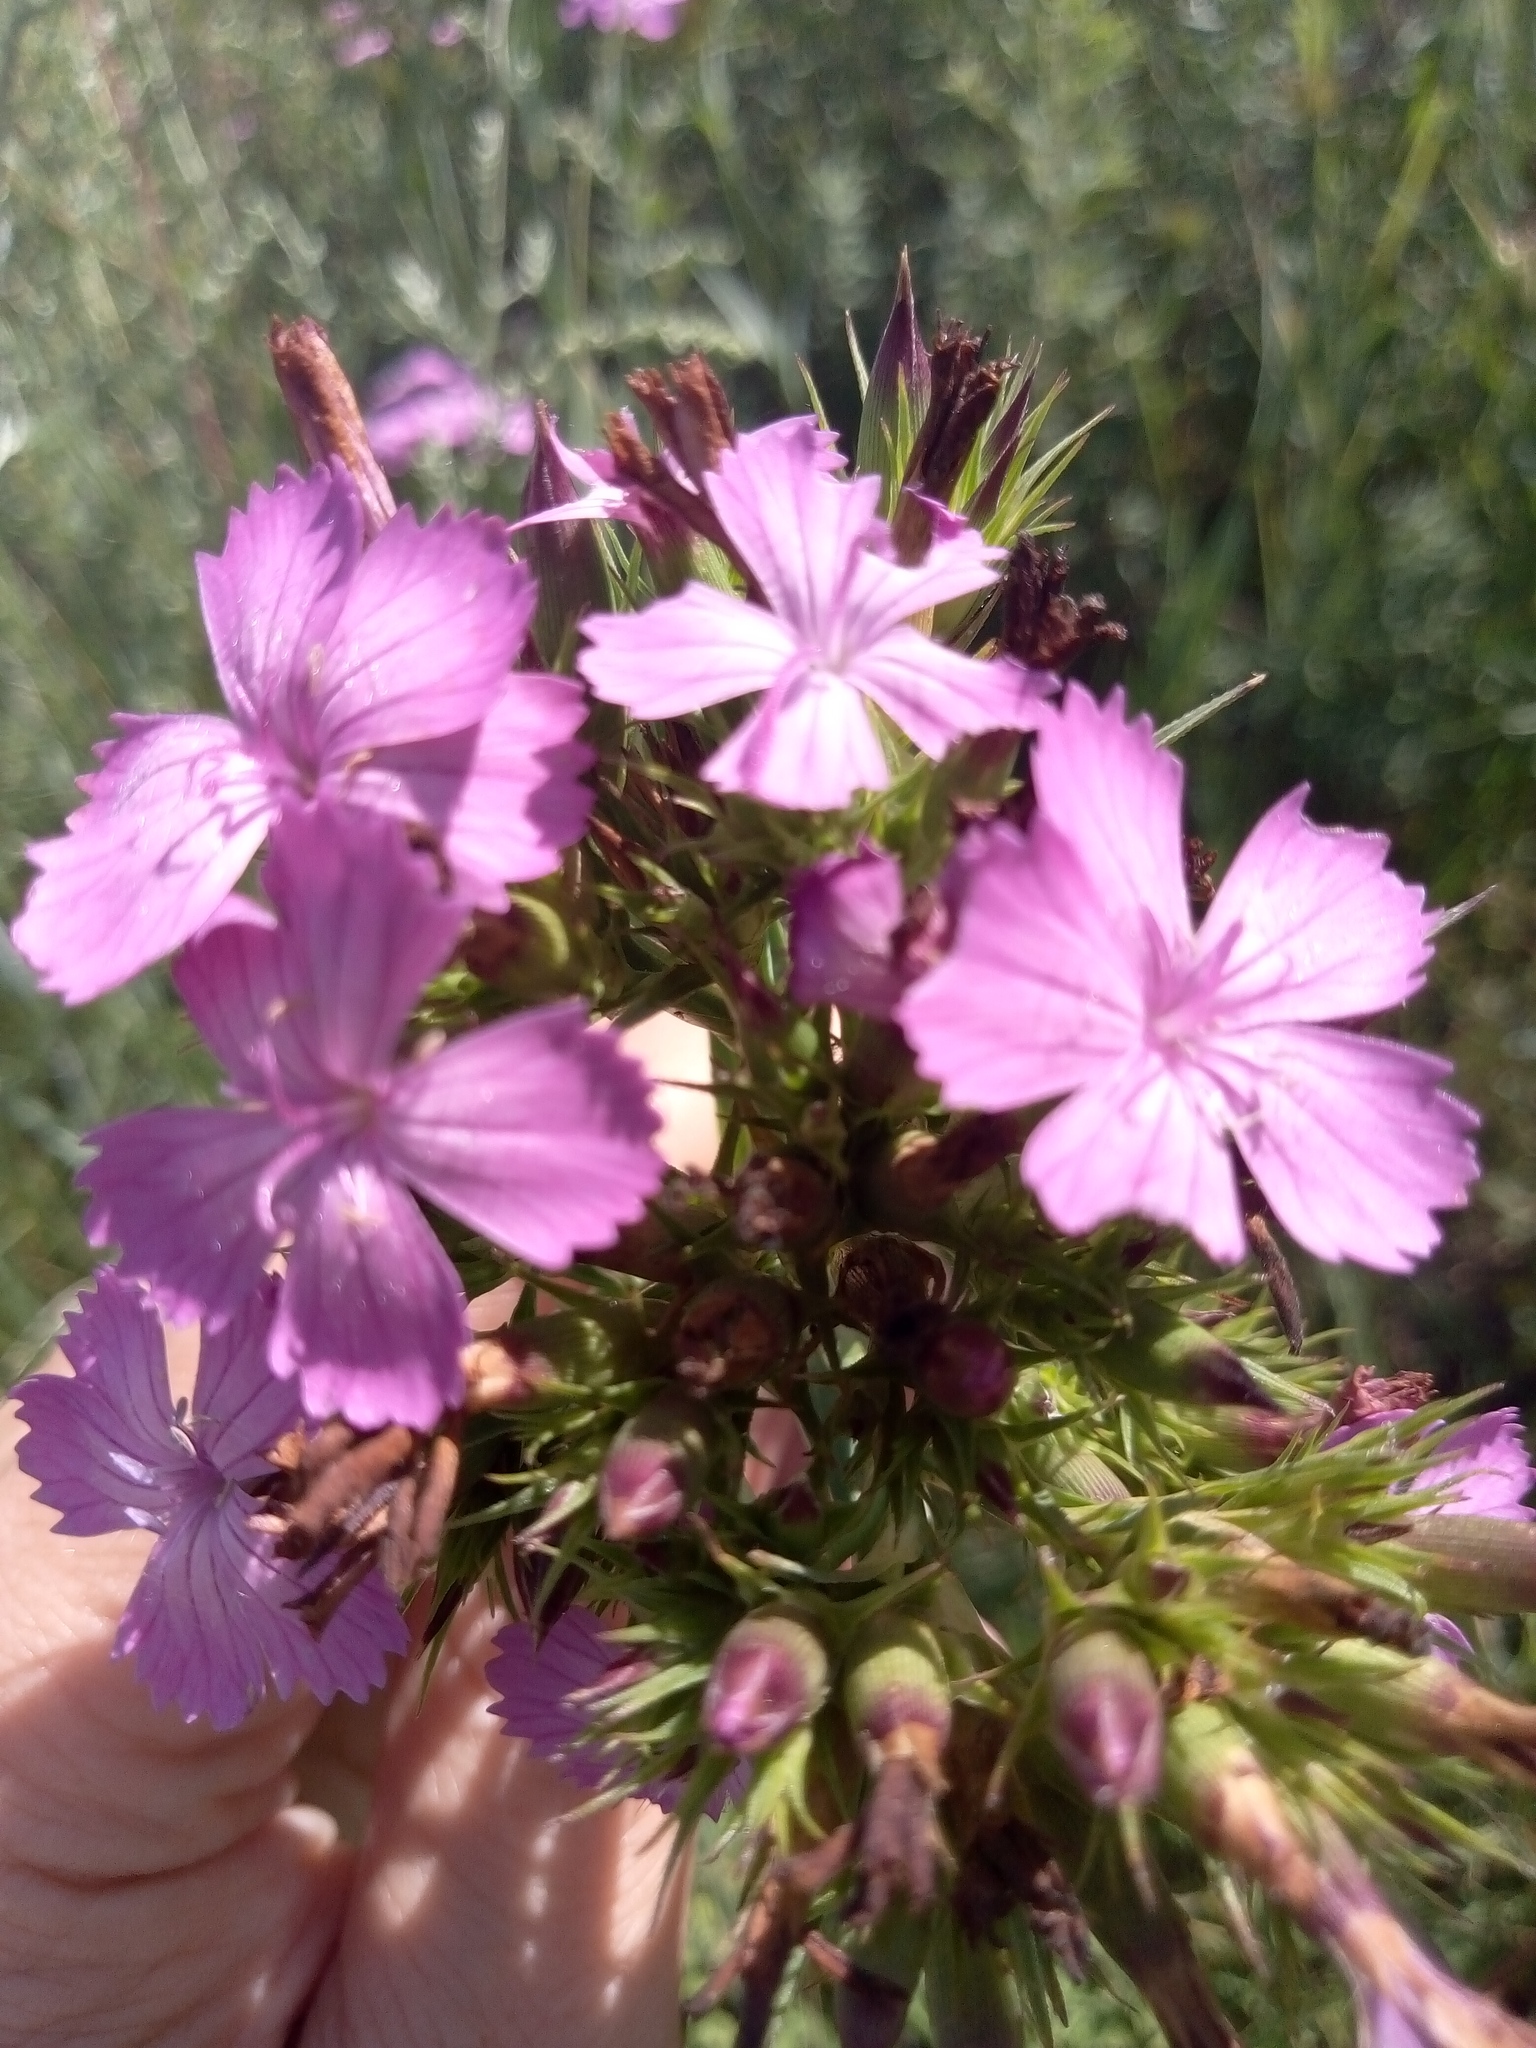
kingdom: Plantae
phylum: Tracheophyta
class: Magnoliopsida
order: Caryophyllales
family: Caryophyllaceae
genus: Dianthus
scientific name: Dianthus trifasciculatus
